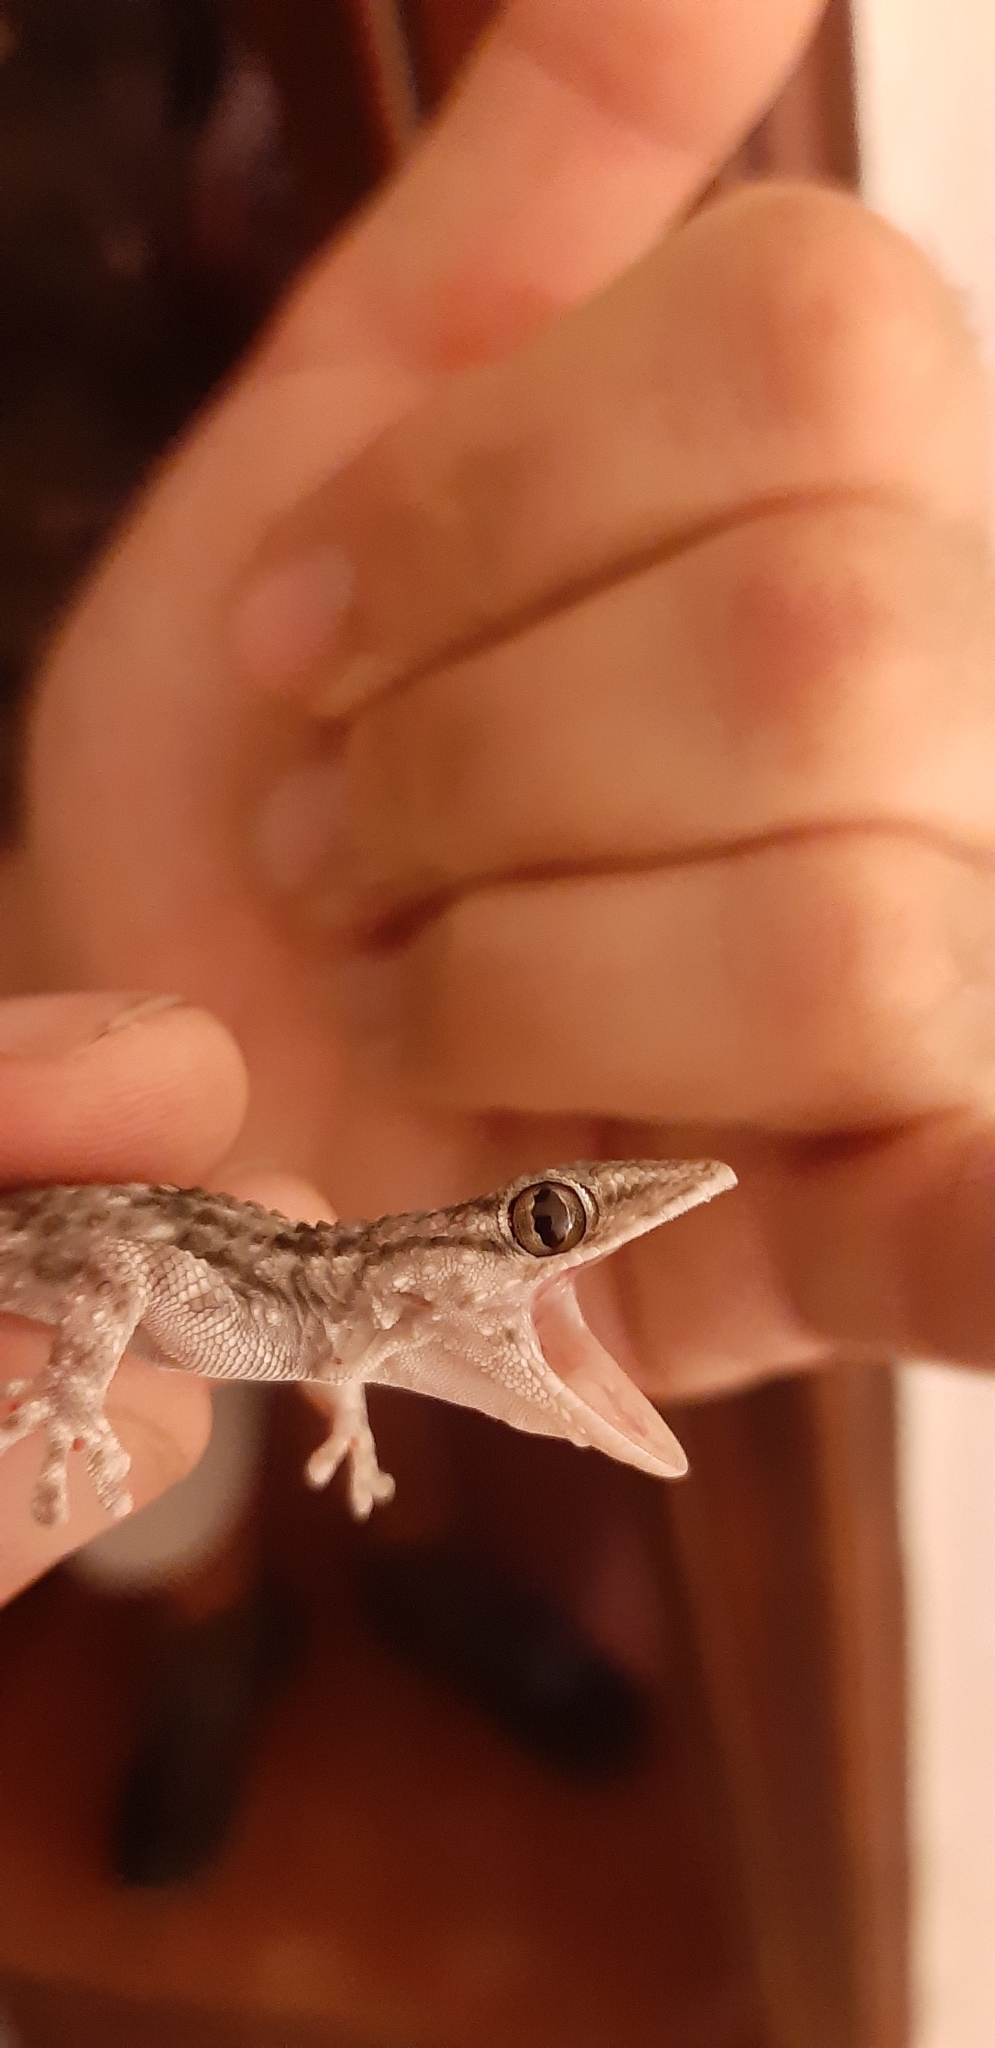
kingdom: Animalia
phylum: Chordata
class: Squamata
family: Phyllodactylidae
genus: Tarentola
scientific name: Tarentola mauritanica
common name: Moorish gecko
